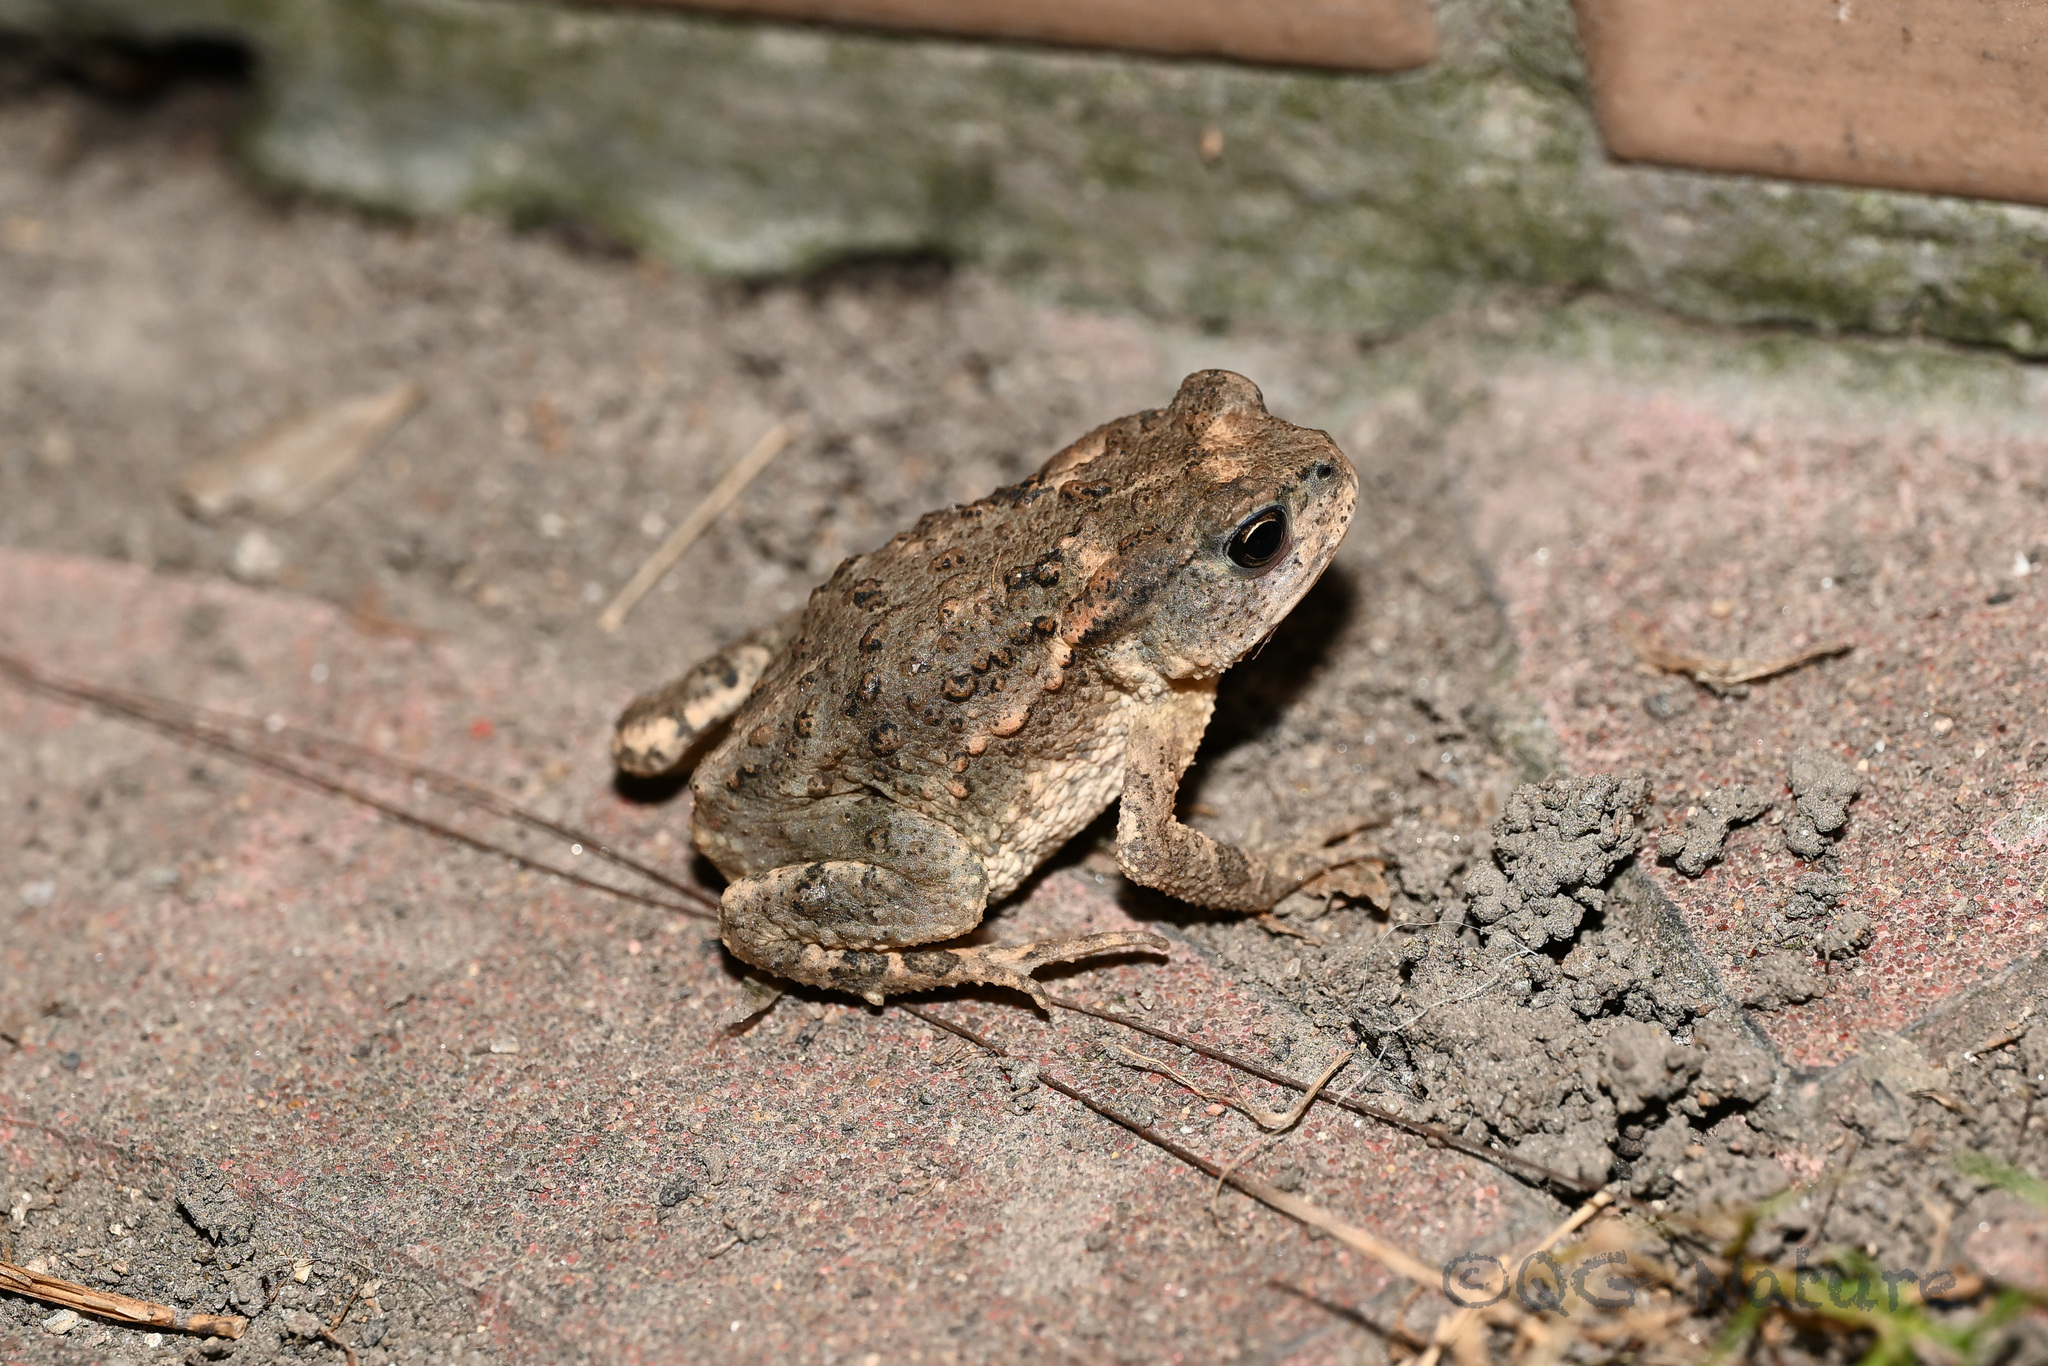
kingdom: Animalia
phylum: Chordata
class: Amphibia
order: Anura
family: Bufonidae
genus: Bufo
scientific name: Bufo gargarizans
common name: Asiatic toad
